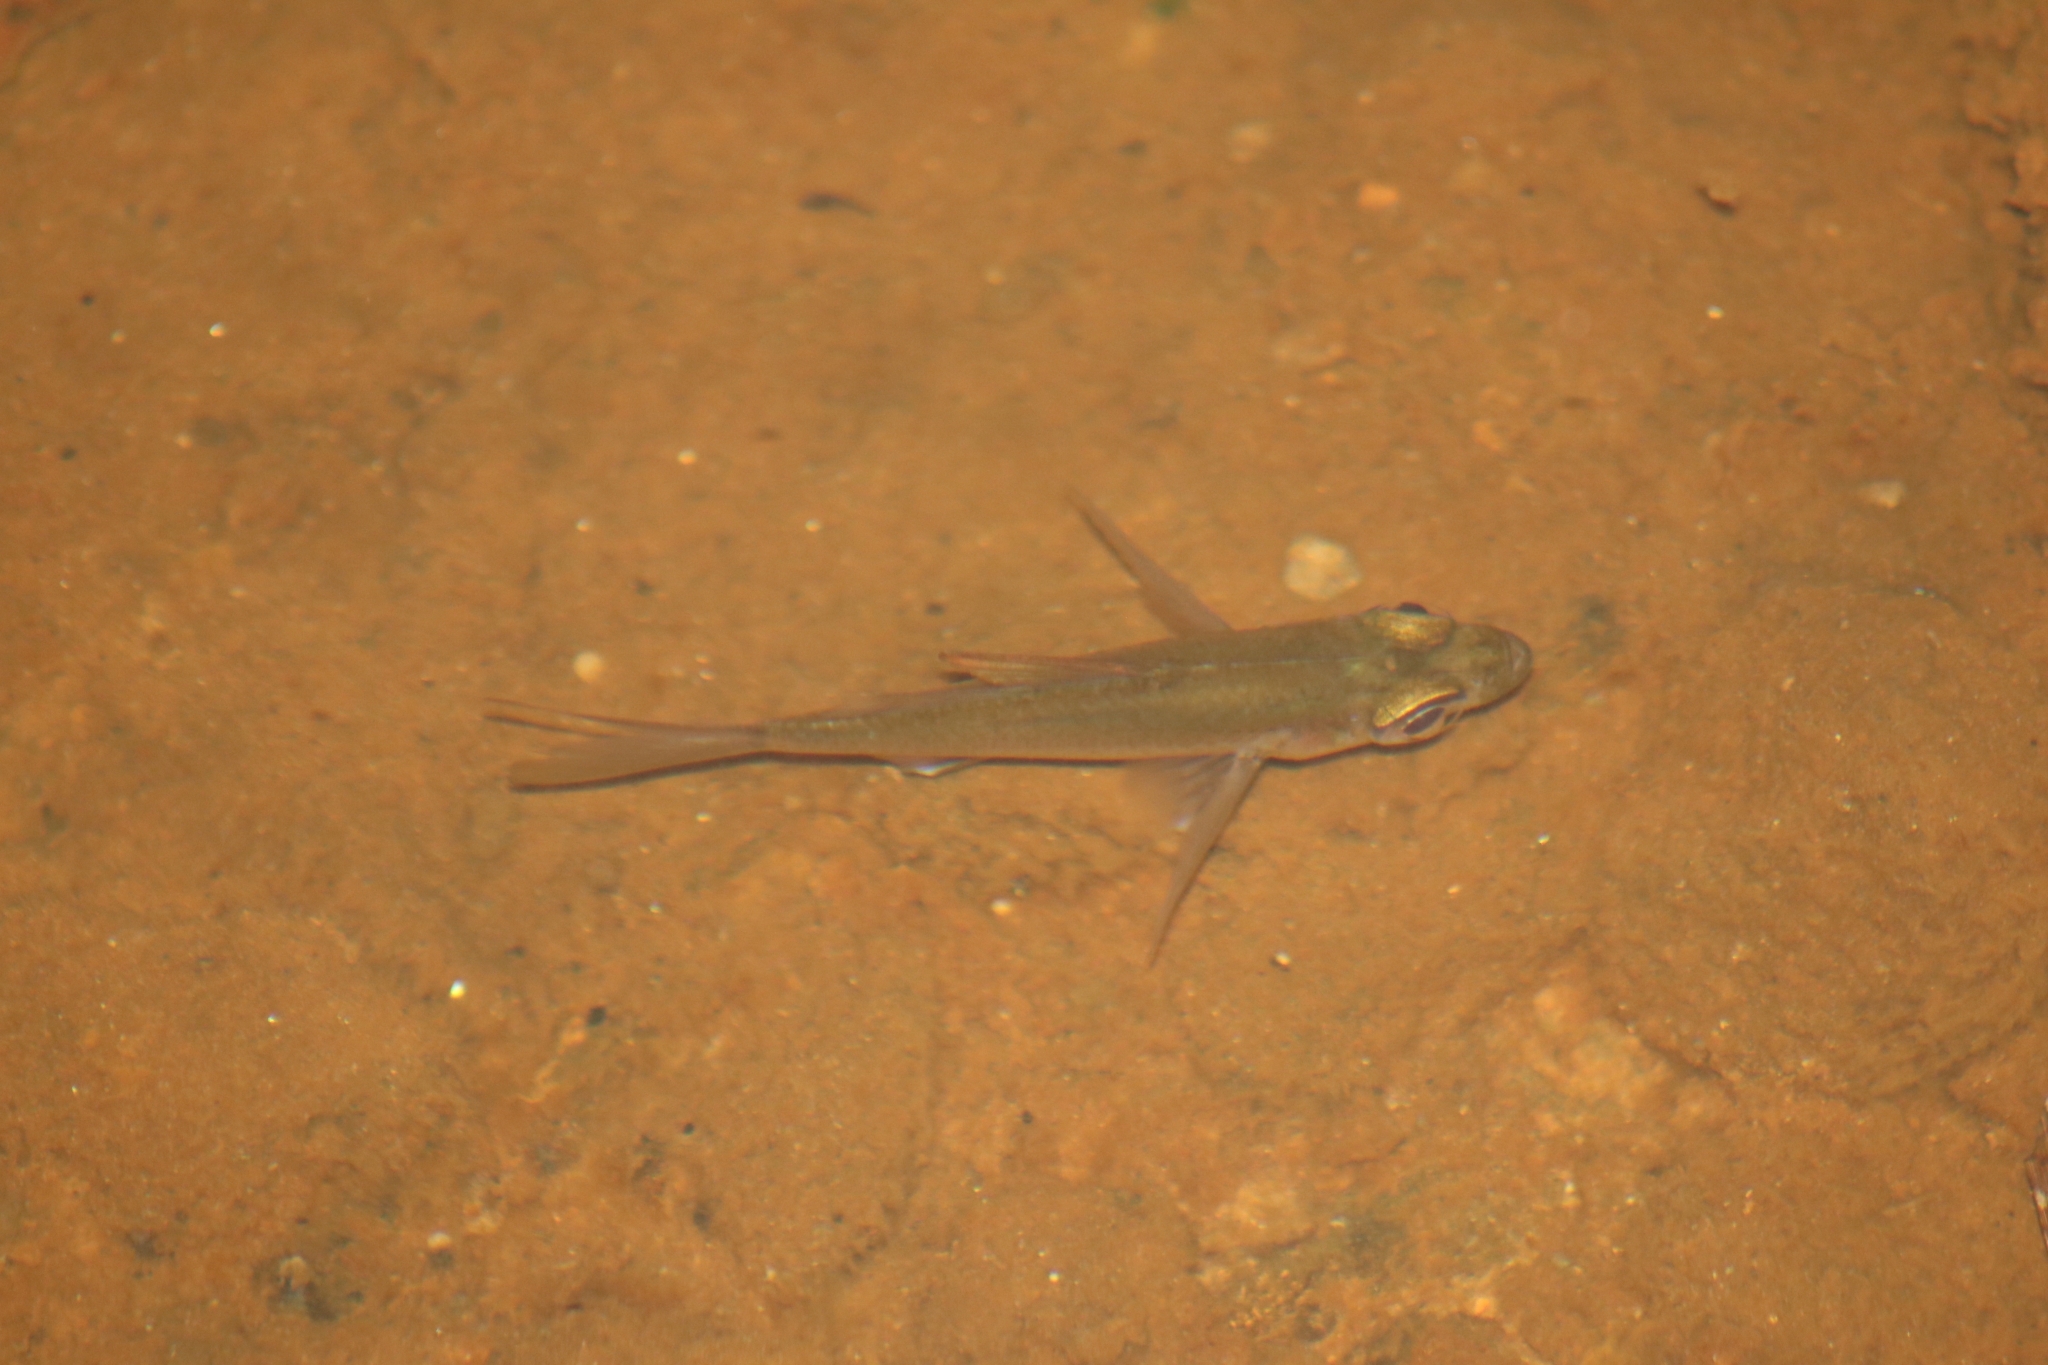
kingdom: Animalia
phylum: Chordata
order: Perciformes
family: Ambassidae
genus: Ambassis
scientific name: Ambassis interrupta
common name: Glassfish
